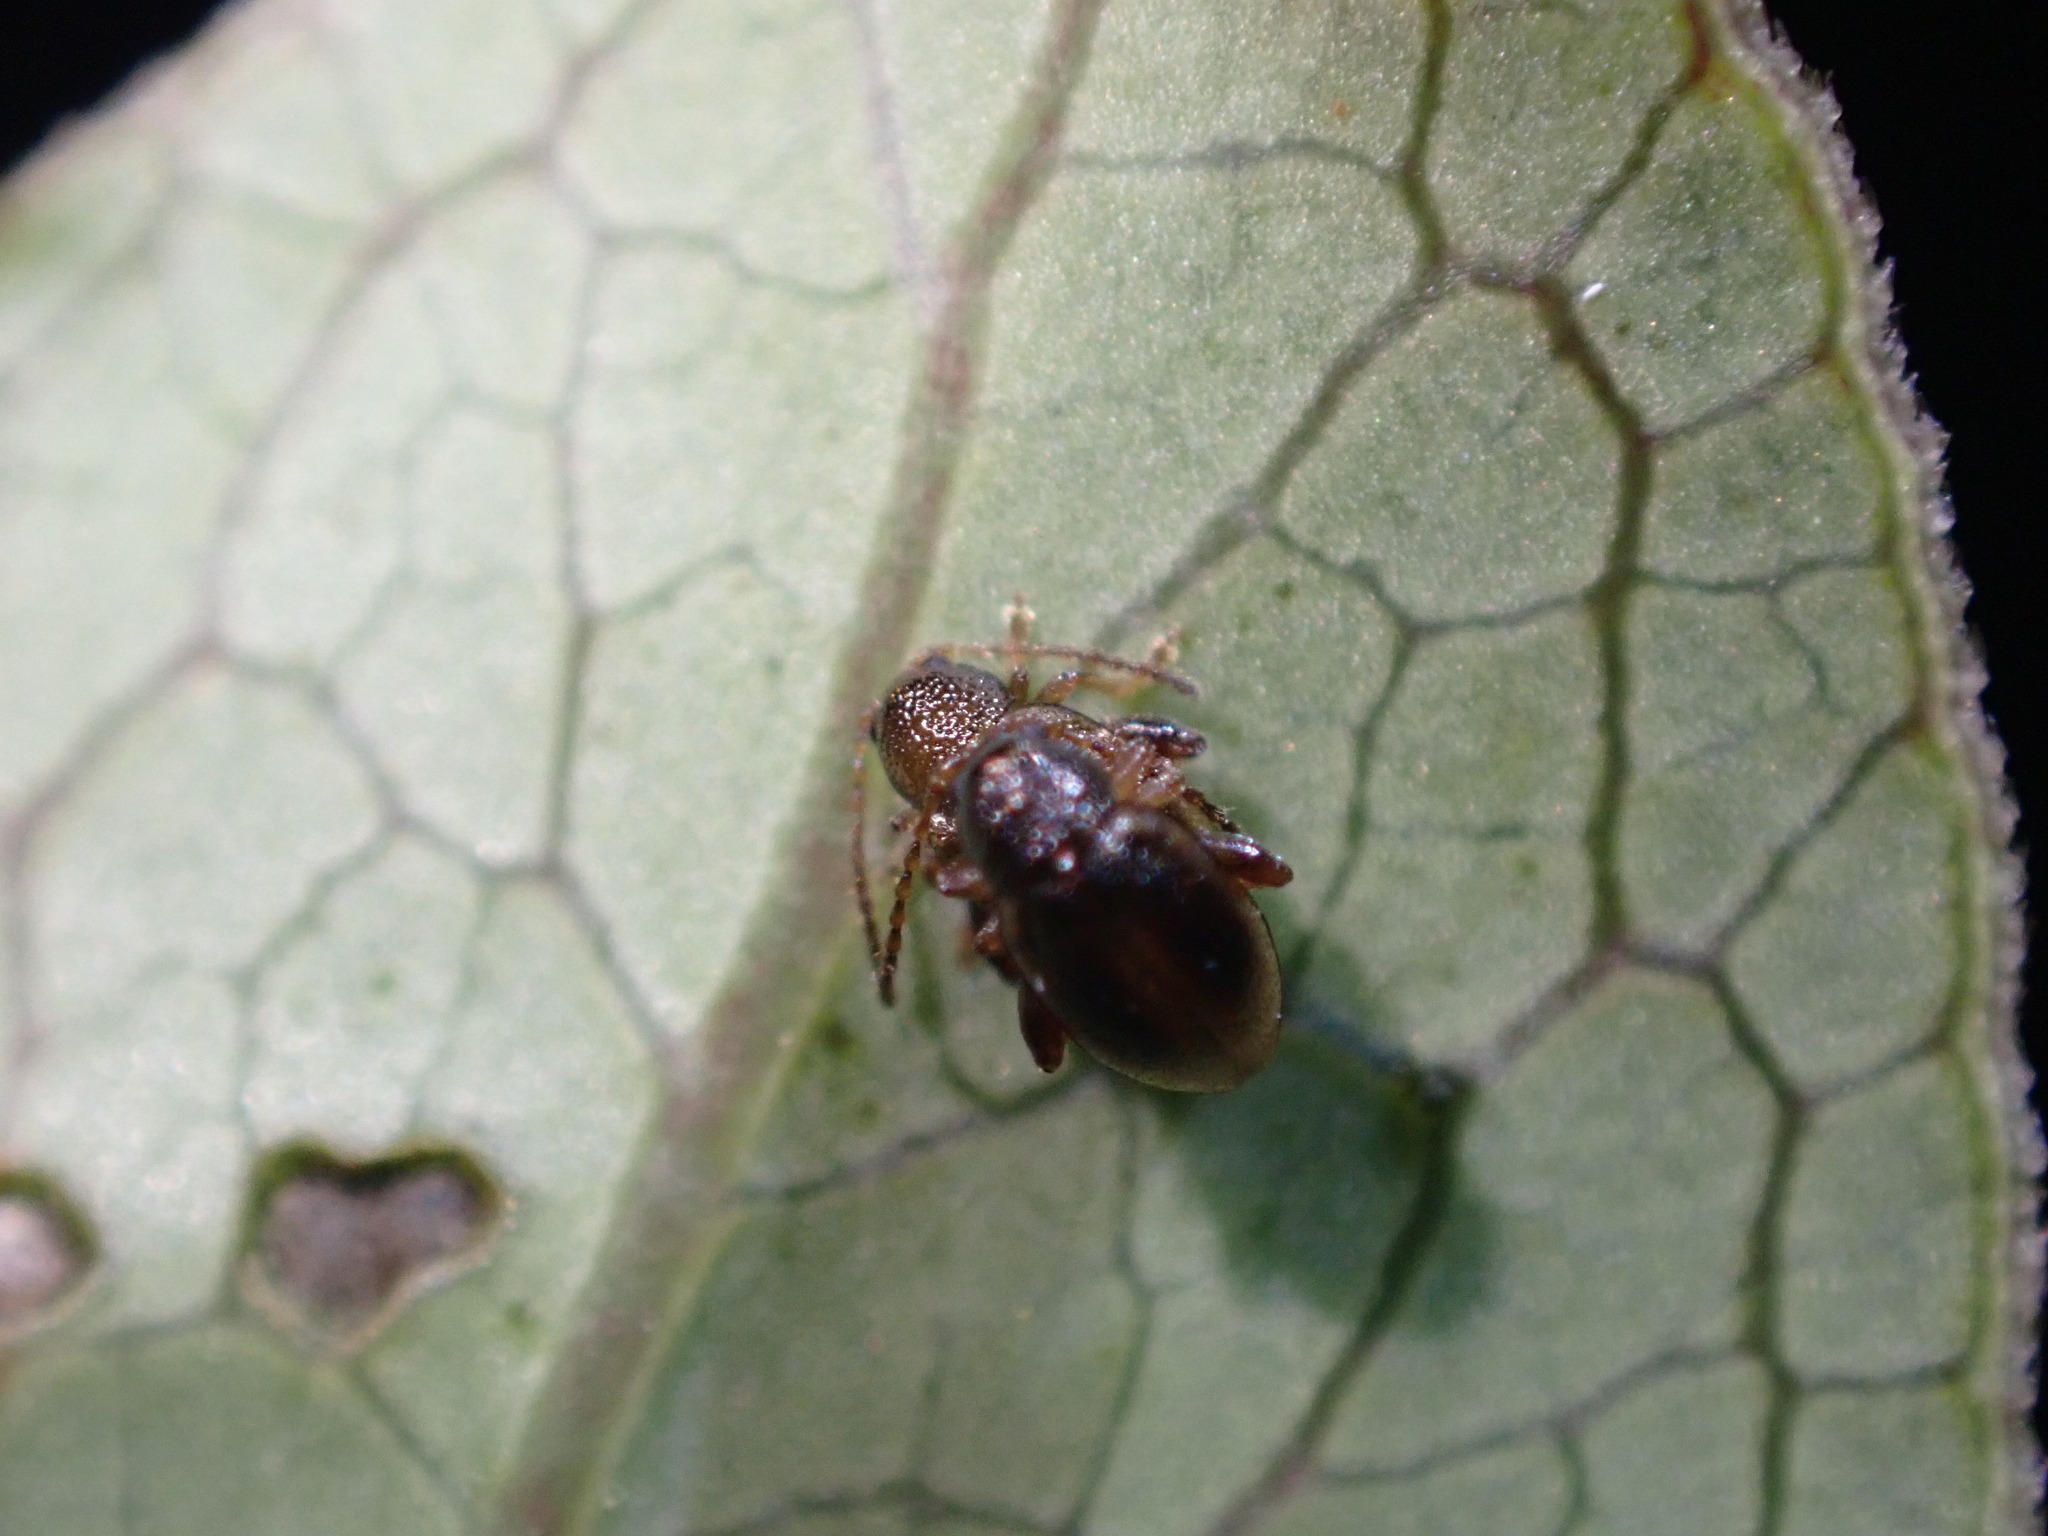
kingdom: Animalia
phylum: Arthropoda
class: Insecta
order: Coleoptera
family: Chrysomelidae
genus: Trachytetra
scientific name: Trachytetra
